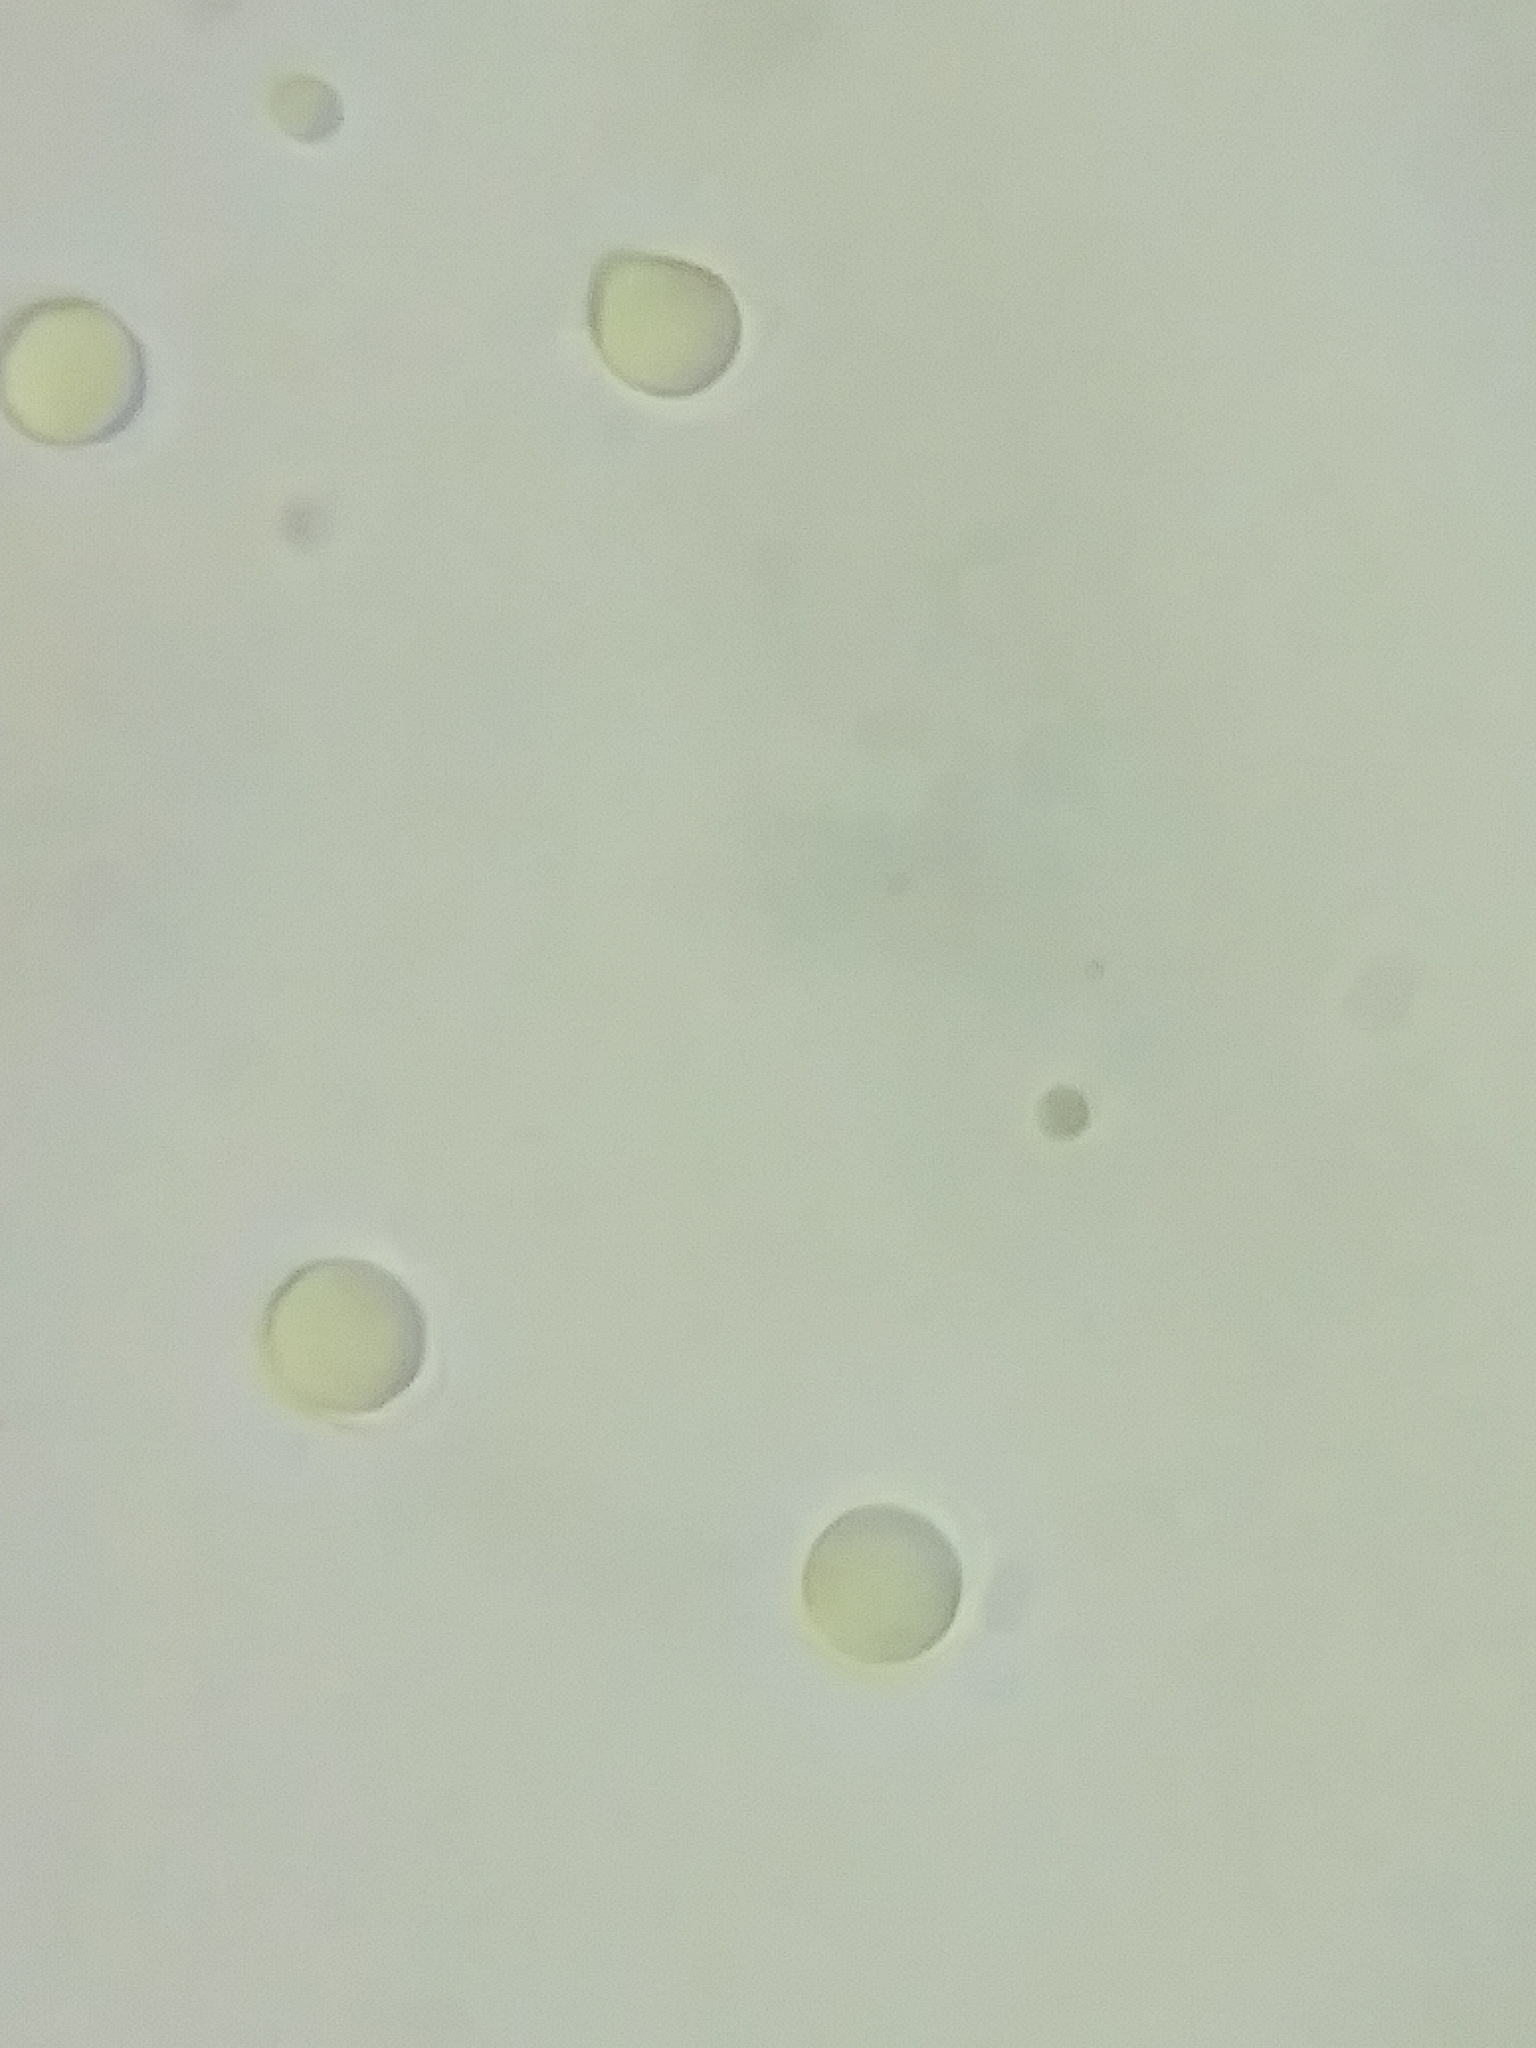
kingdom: Fungi
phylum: Basidiomycota
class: Agaricomycetes
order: Agaricales
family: Mycenaceae
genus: Mycena
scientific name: Mycena inclinata
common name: Clustered bonnet
